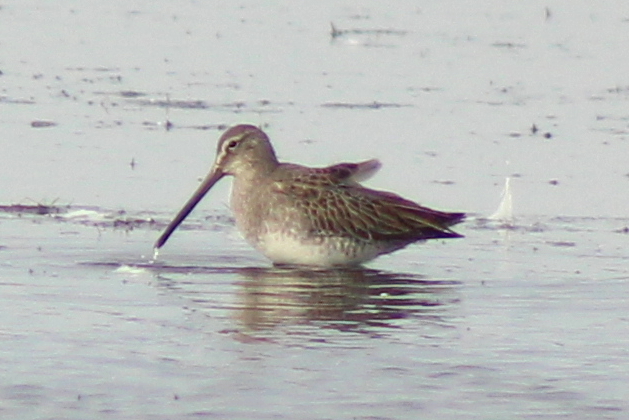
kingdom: Animalia
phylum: Chordata
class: Aves
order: Charadriiformes
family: Scolopacidae
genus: Limnodromus
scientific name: Limnodromus scolopaceus
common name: Long-billed dowitcher
